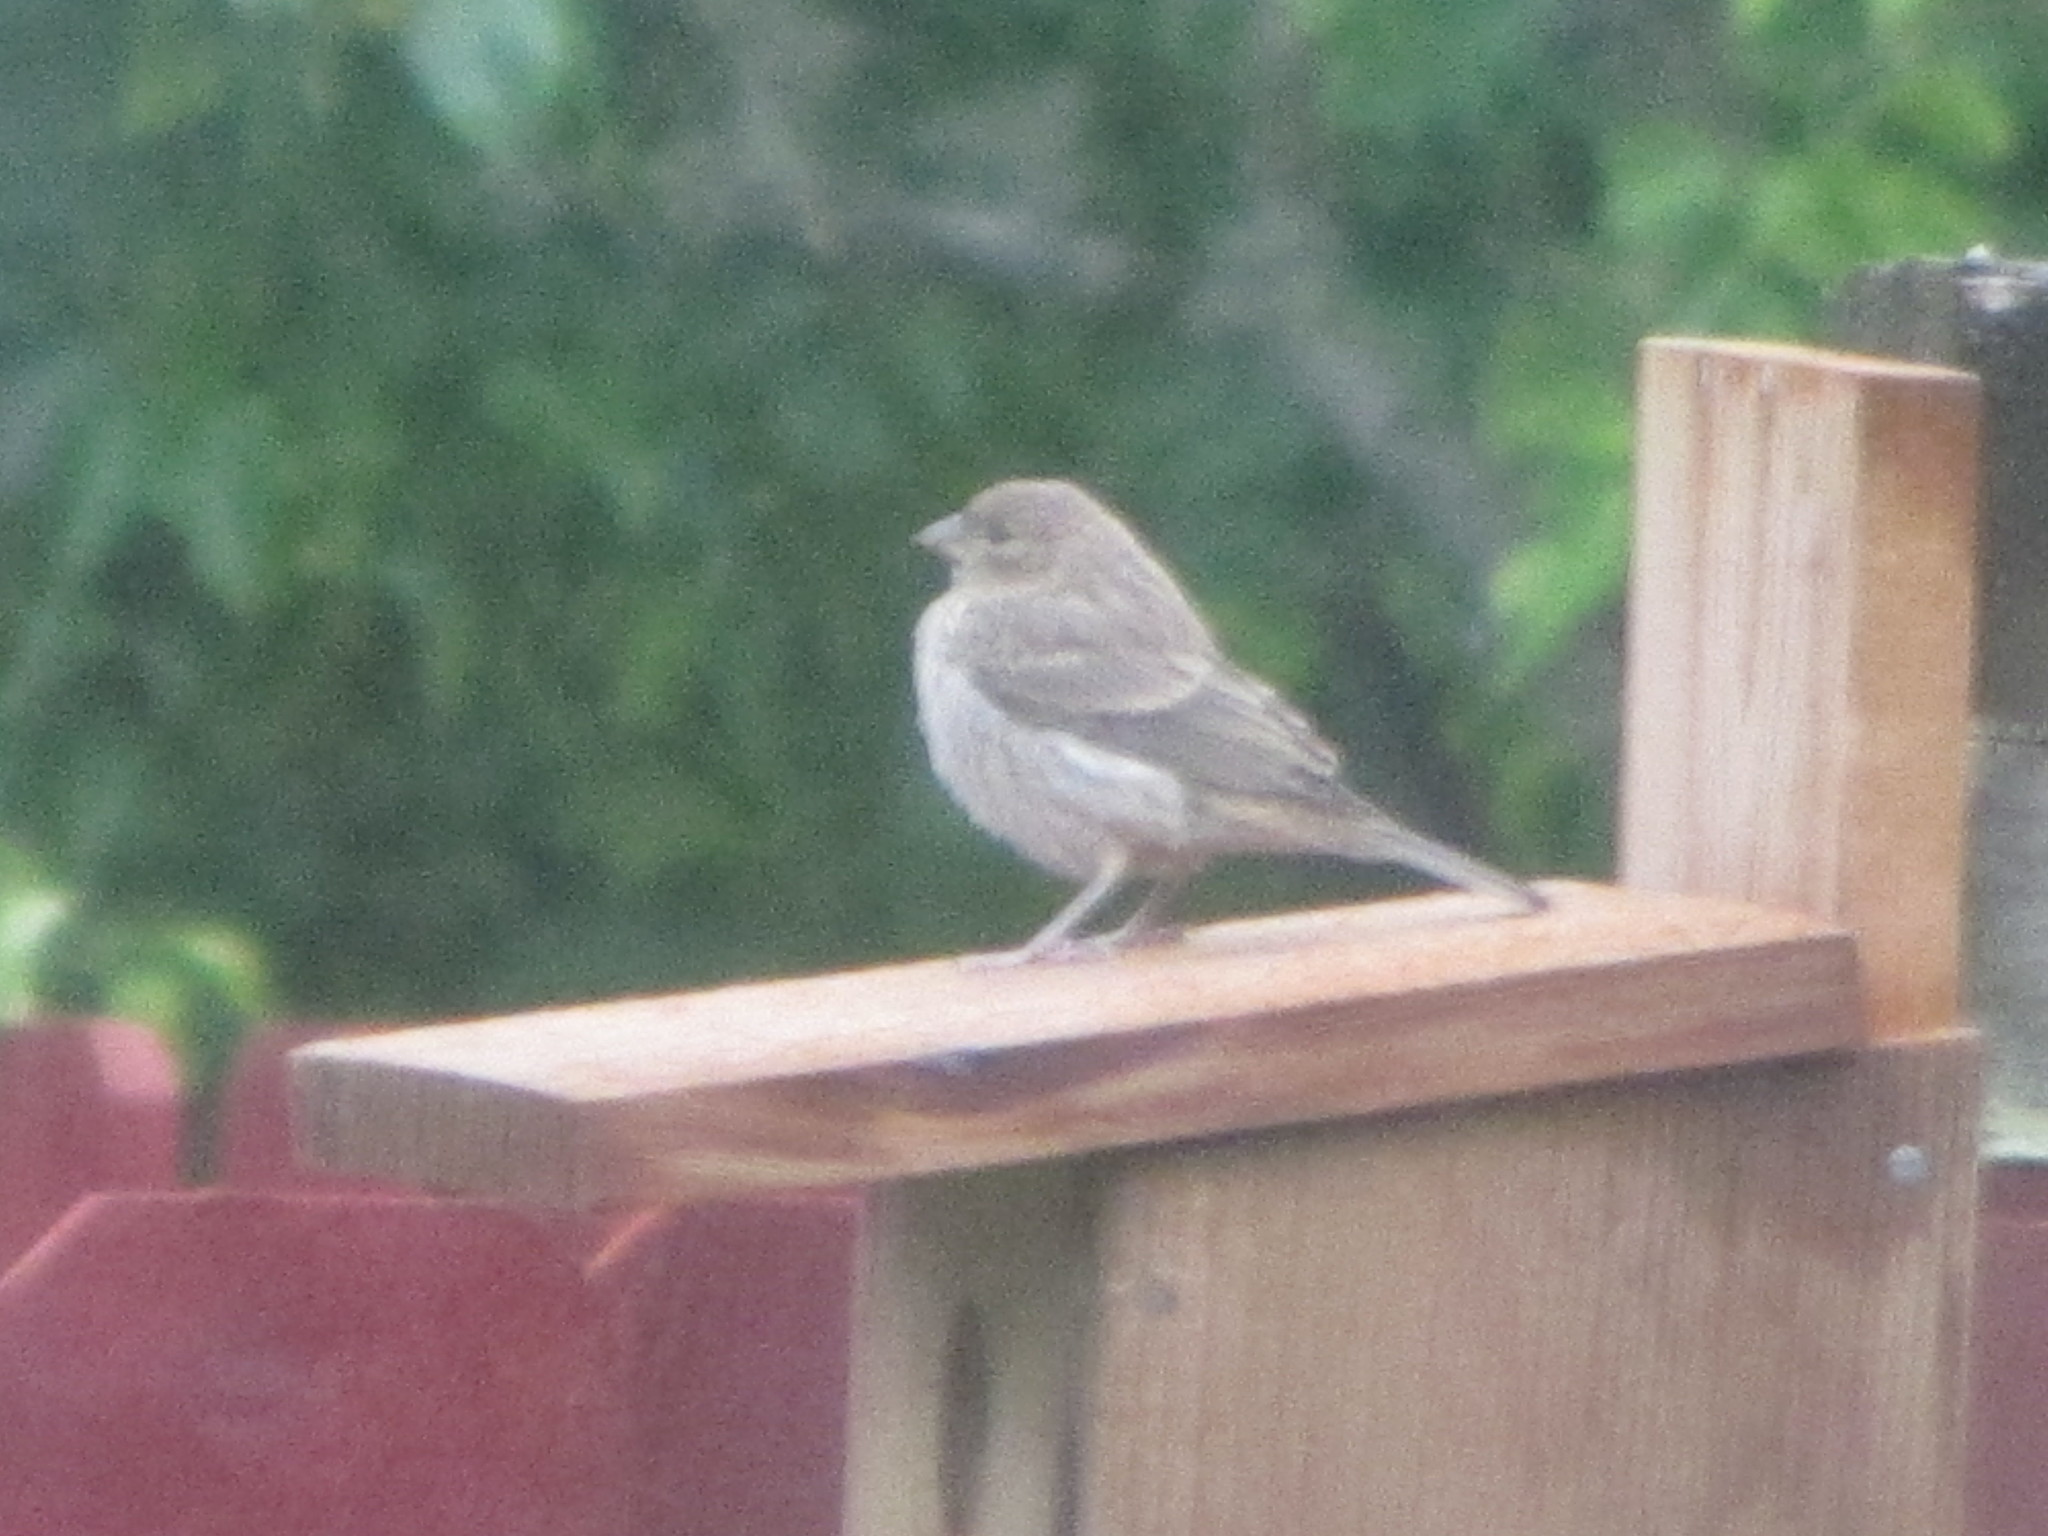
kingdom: Animalia
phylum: Chordata
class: Aves
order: Passeriformes
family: Fringillidae
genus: Haemorhous
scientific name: Haemorhous mexicanus
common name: House finch
